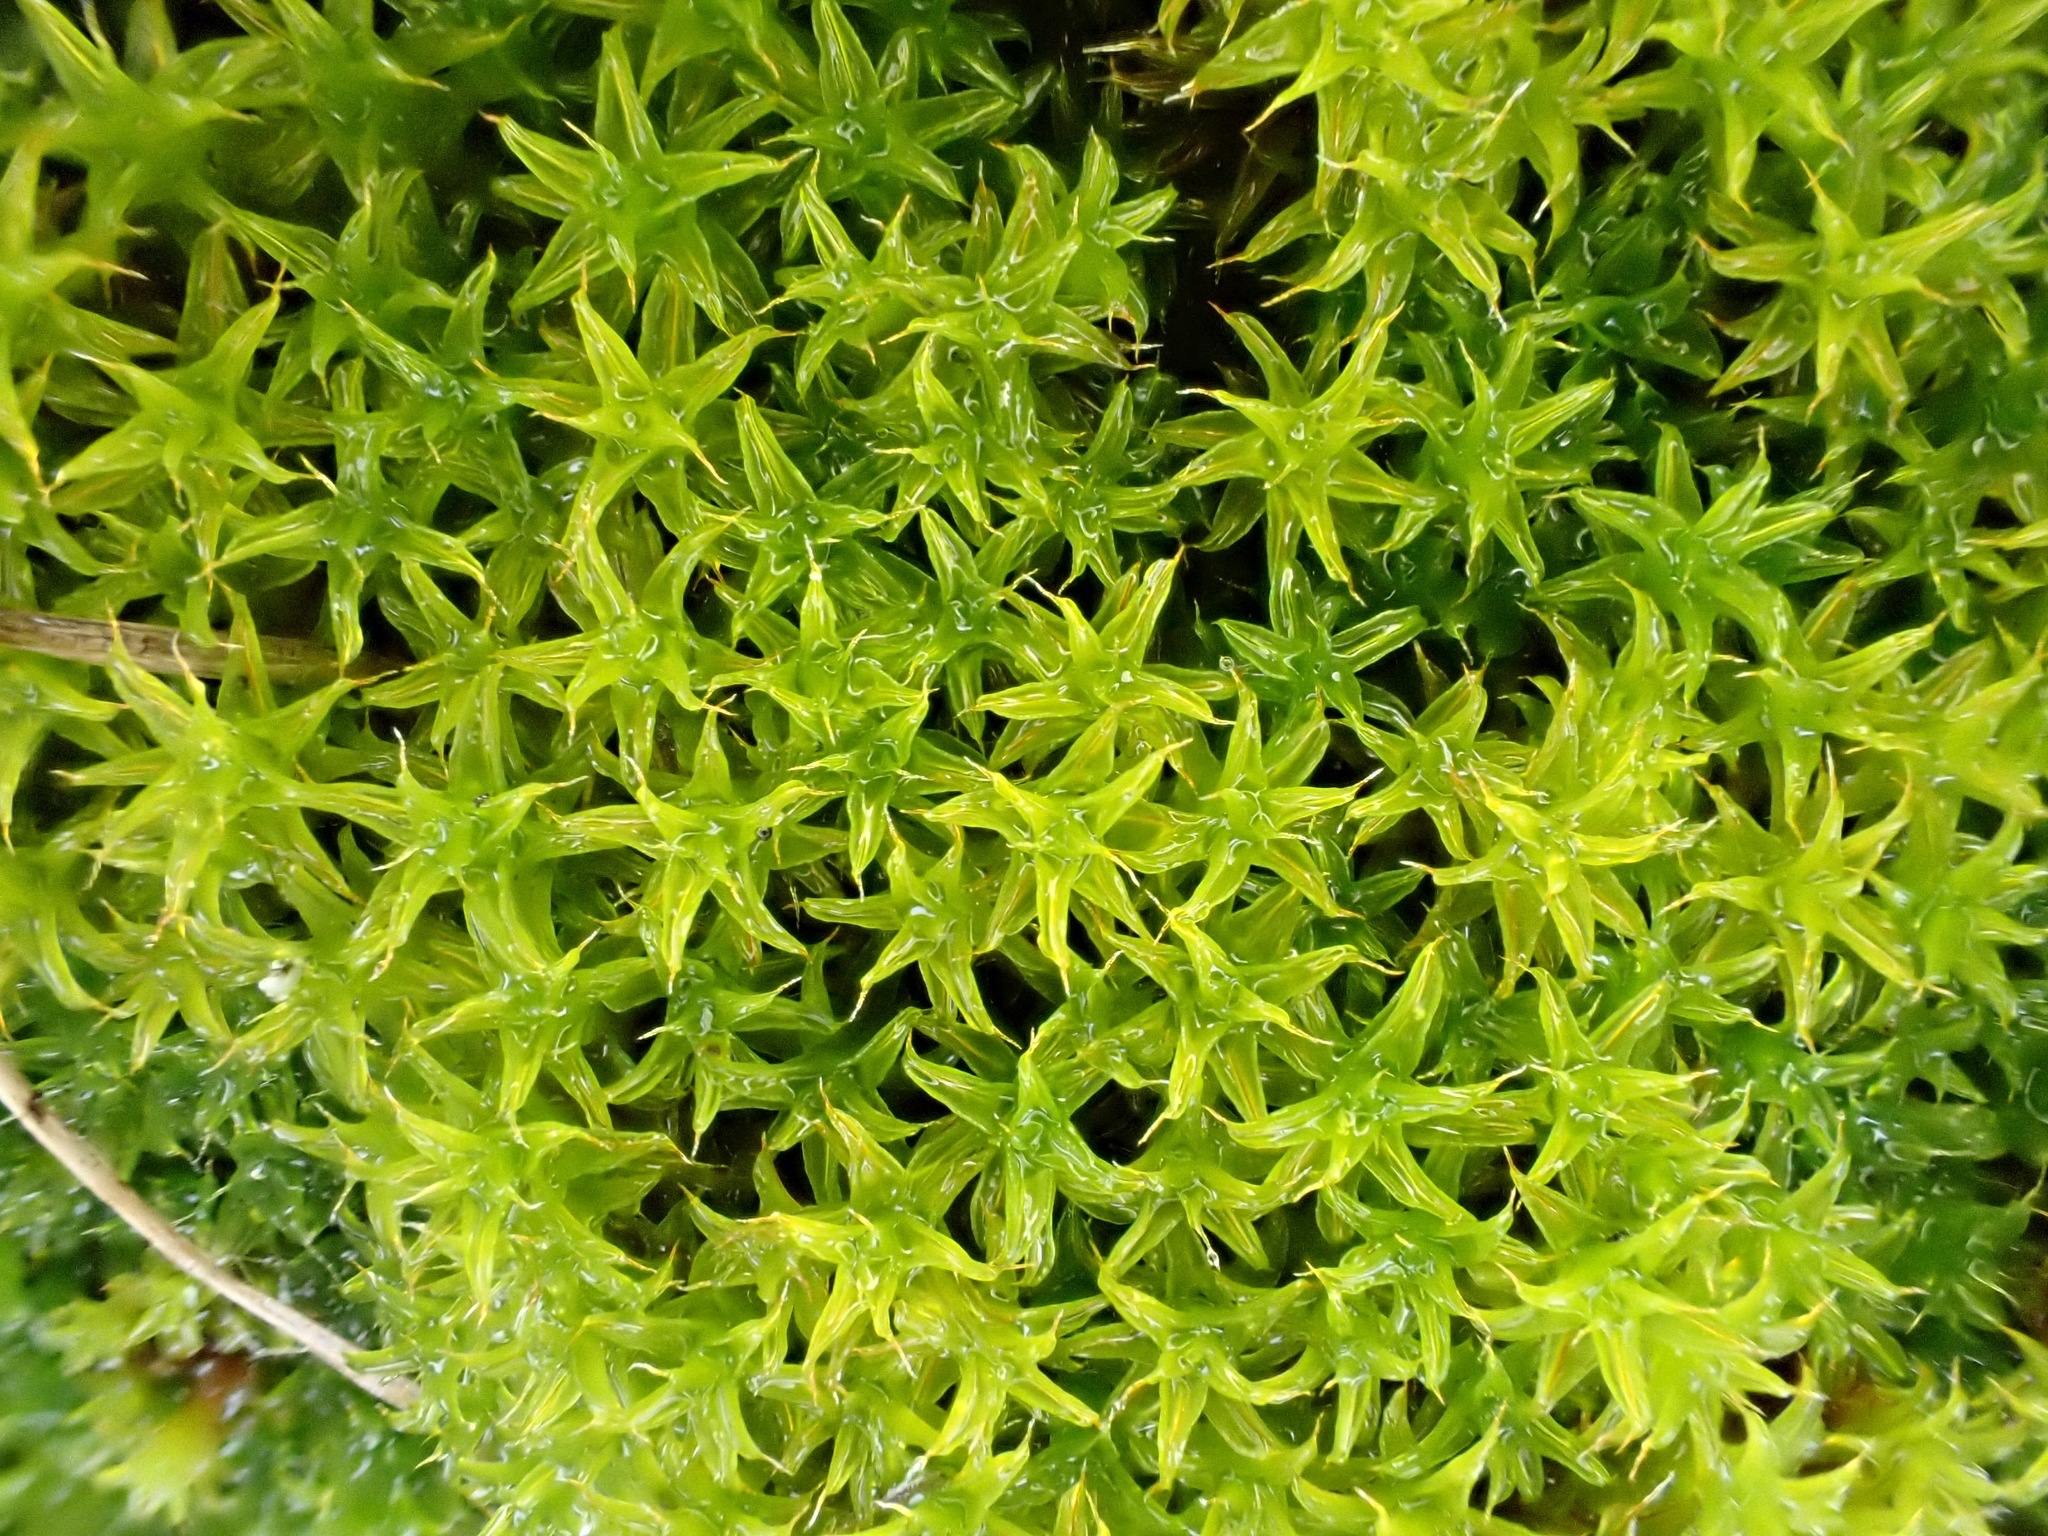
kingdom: Plantae
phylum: Bryophyta
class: Bryopsida
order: Pottiales
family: Pottiaceae
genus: Syntrichia
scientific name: Syntrichia ruralis
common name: Sidewalk screw moss
